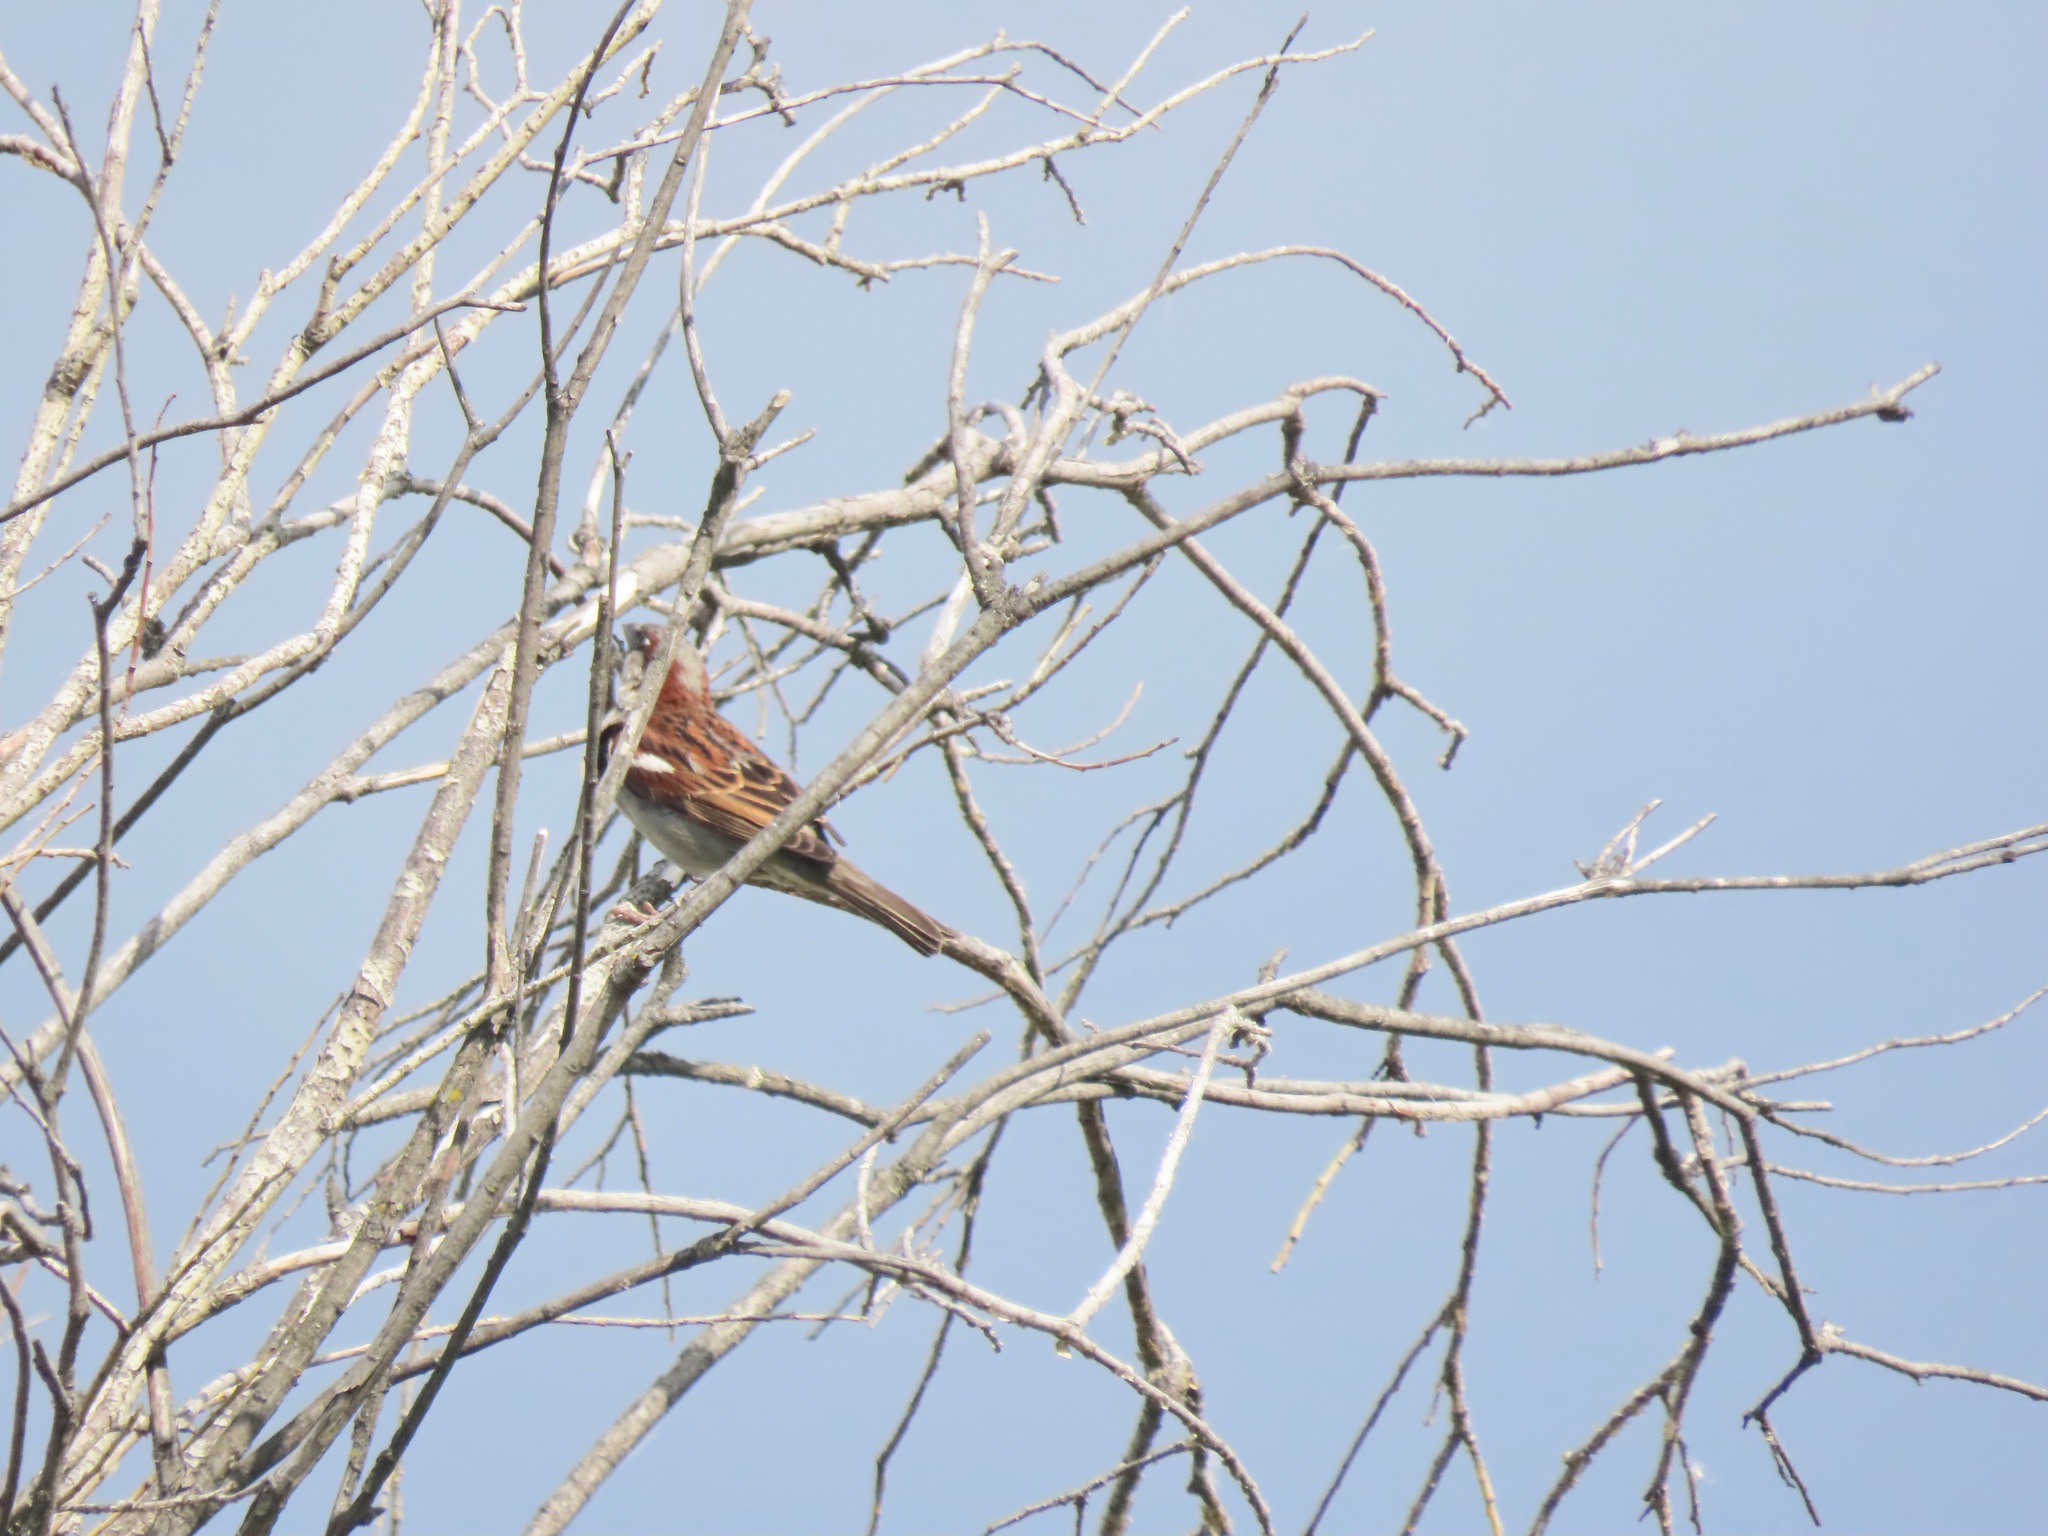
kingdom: Animalia
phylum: Chordata
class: Aves
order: Passeriformes
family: Passeridae
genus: Passer
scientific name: Passer domesticus
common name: House sparrow
